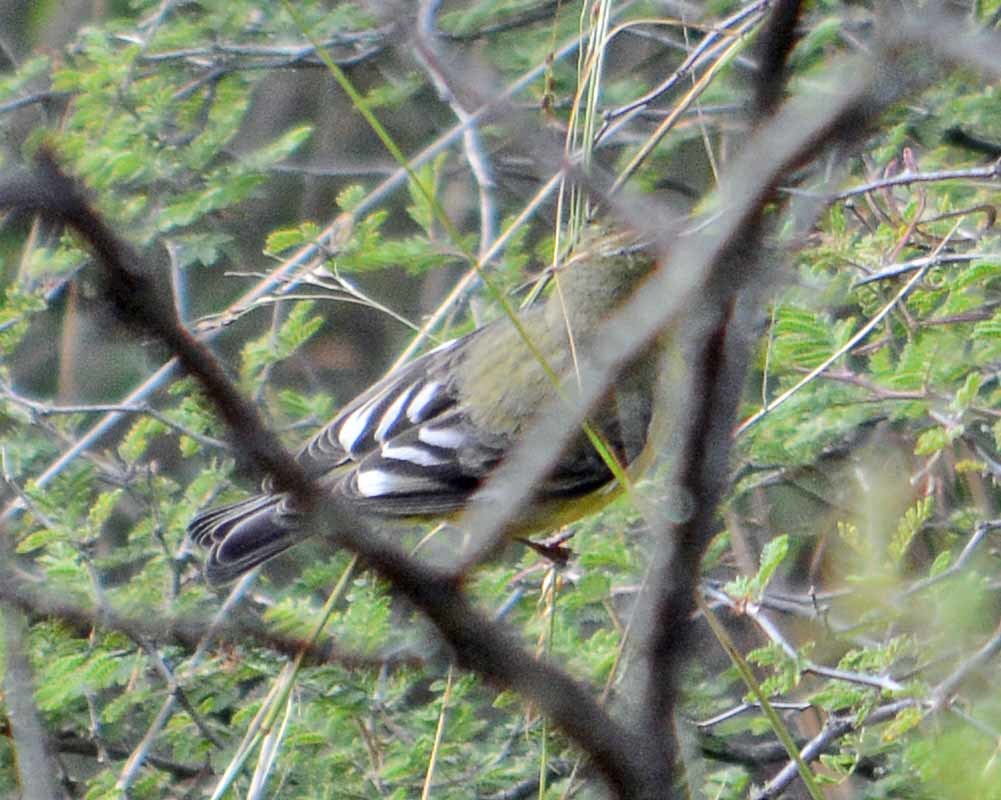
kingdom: Animalia
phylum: Chordata
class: Aves
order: Passeriformes
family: Fringillidae
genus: Spinus
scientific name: Spinus psaltria
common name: Lesser goldfinch
